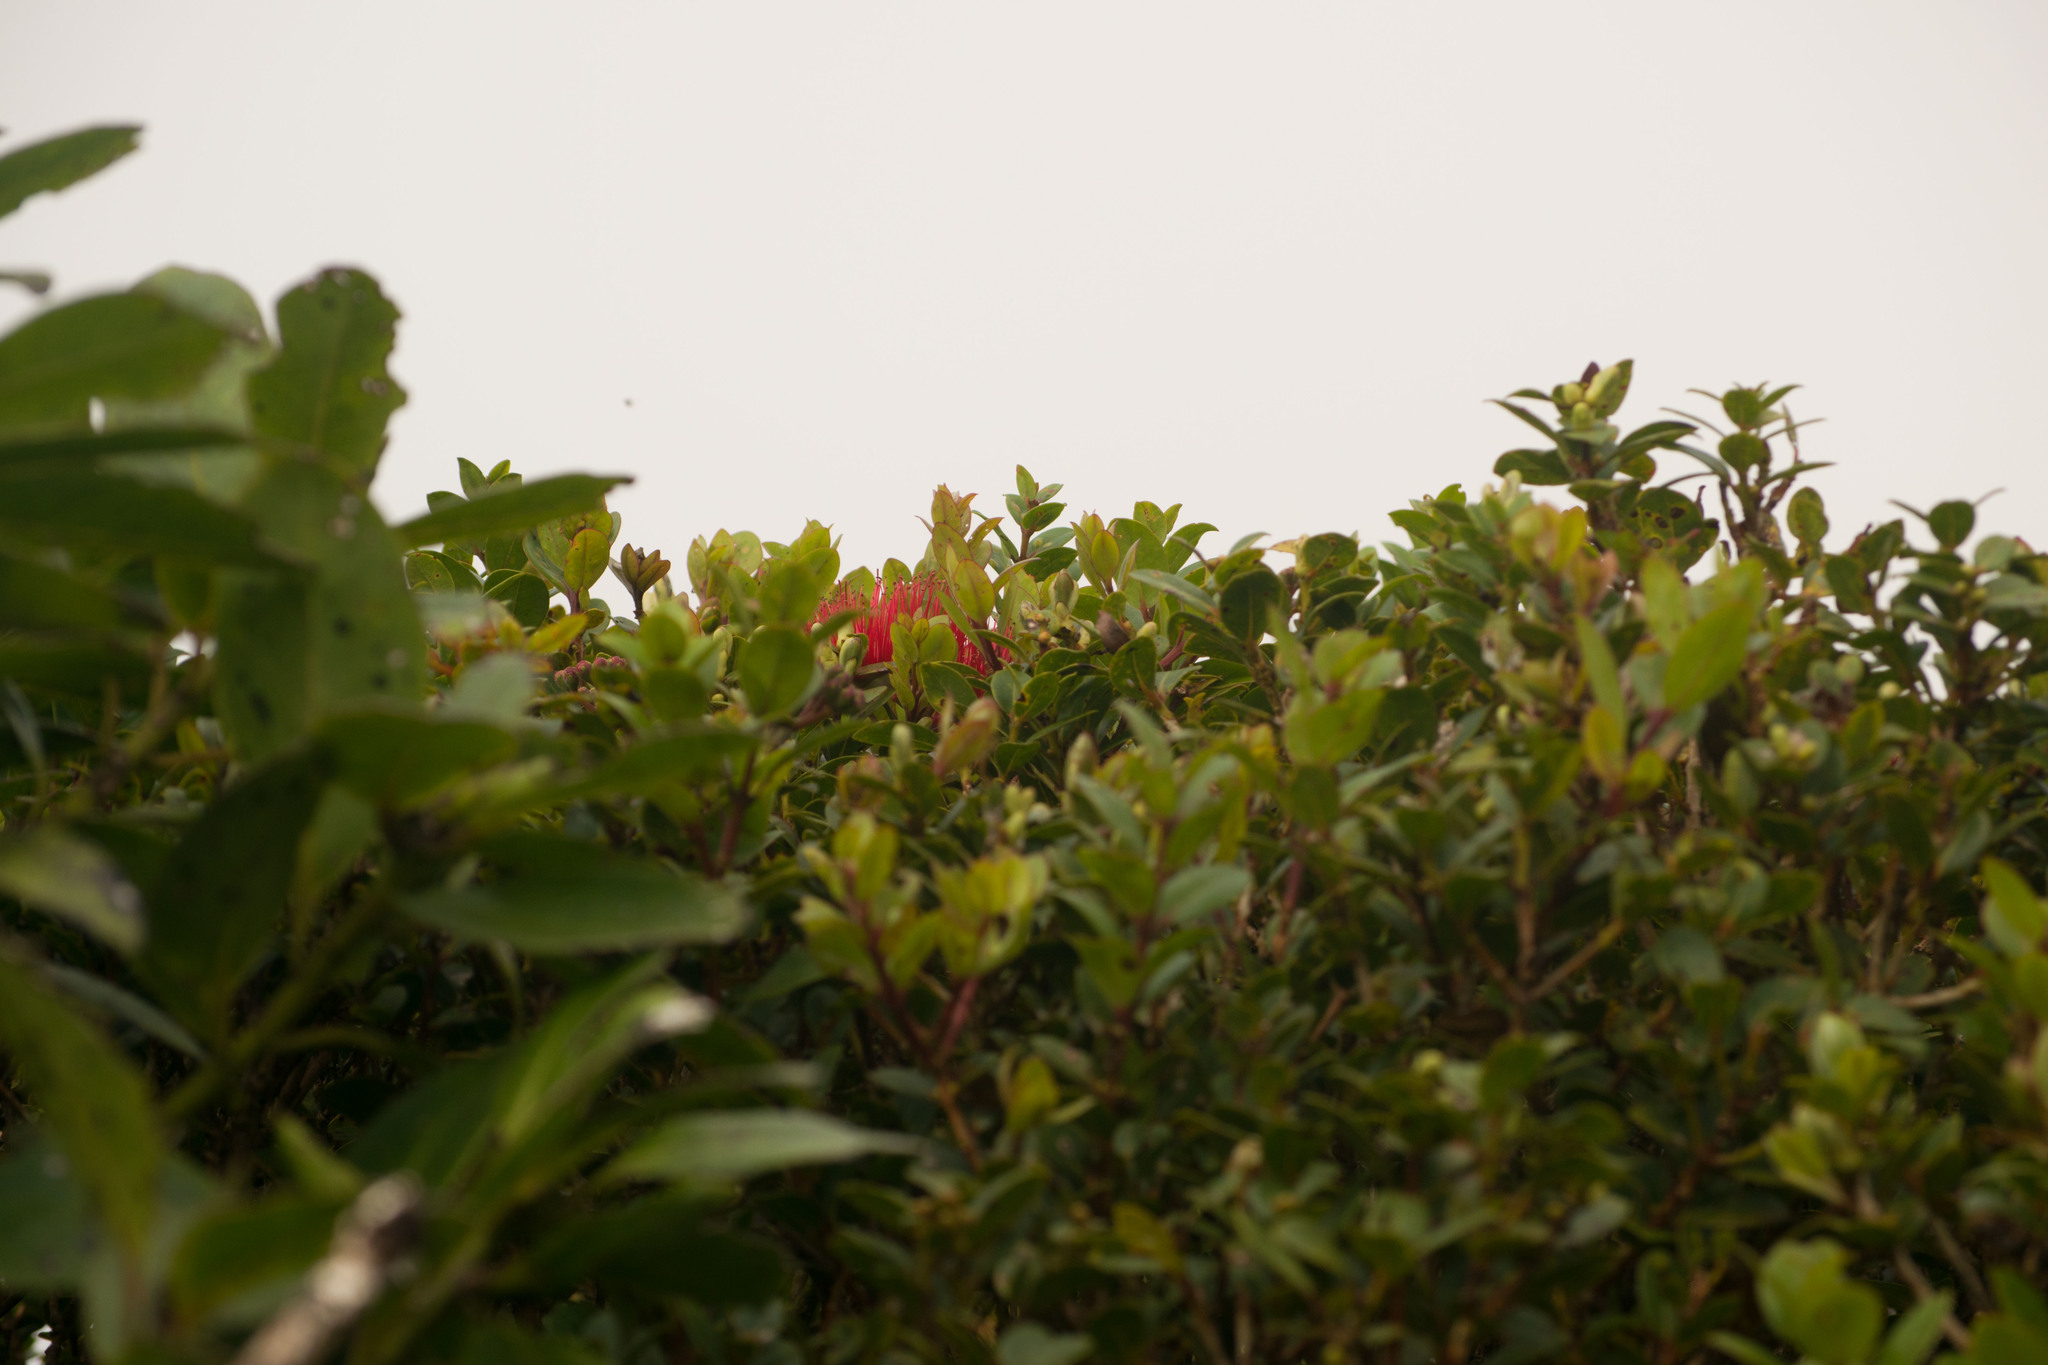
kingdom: Plantae
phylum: Tracheophyta
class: Magnoliopsida
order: Myrtales
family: Myrtaceae
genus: Metrosideros
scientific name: Metrosideros polymorpha
